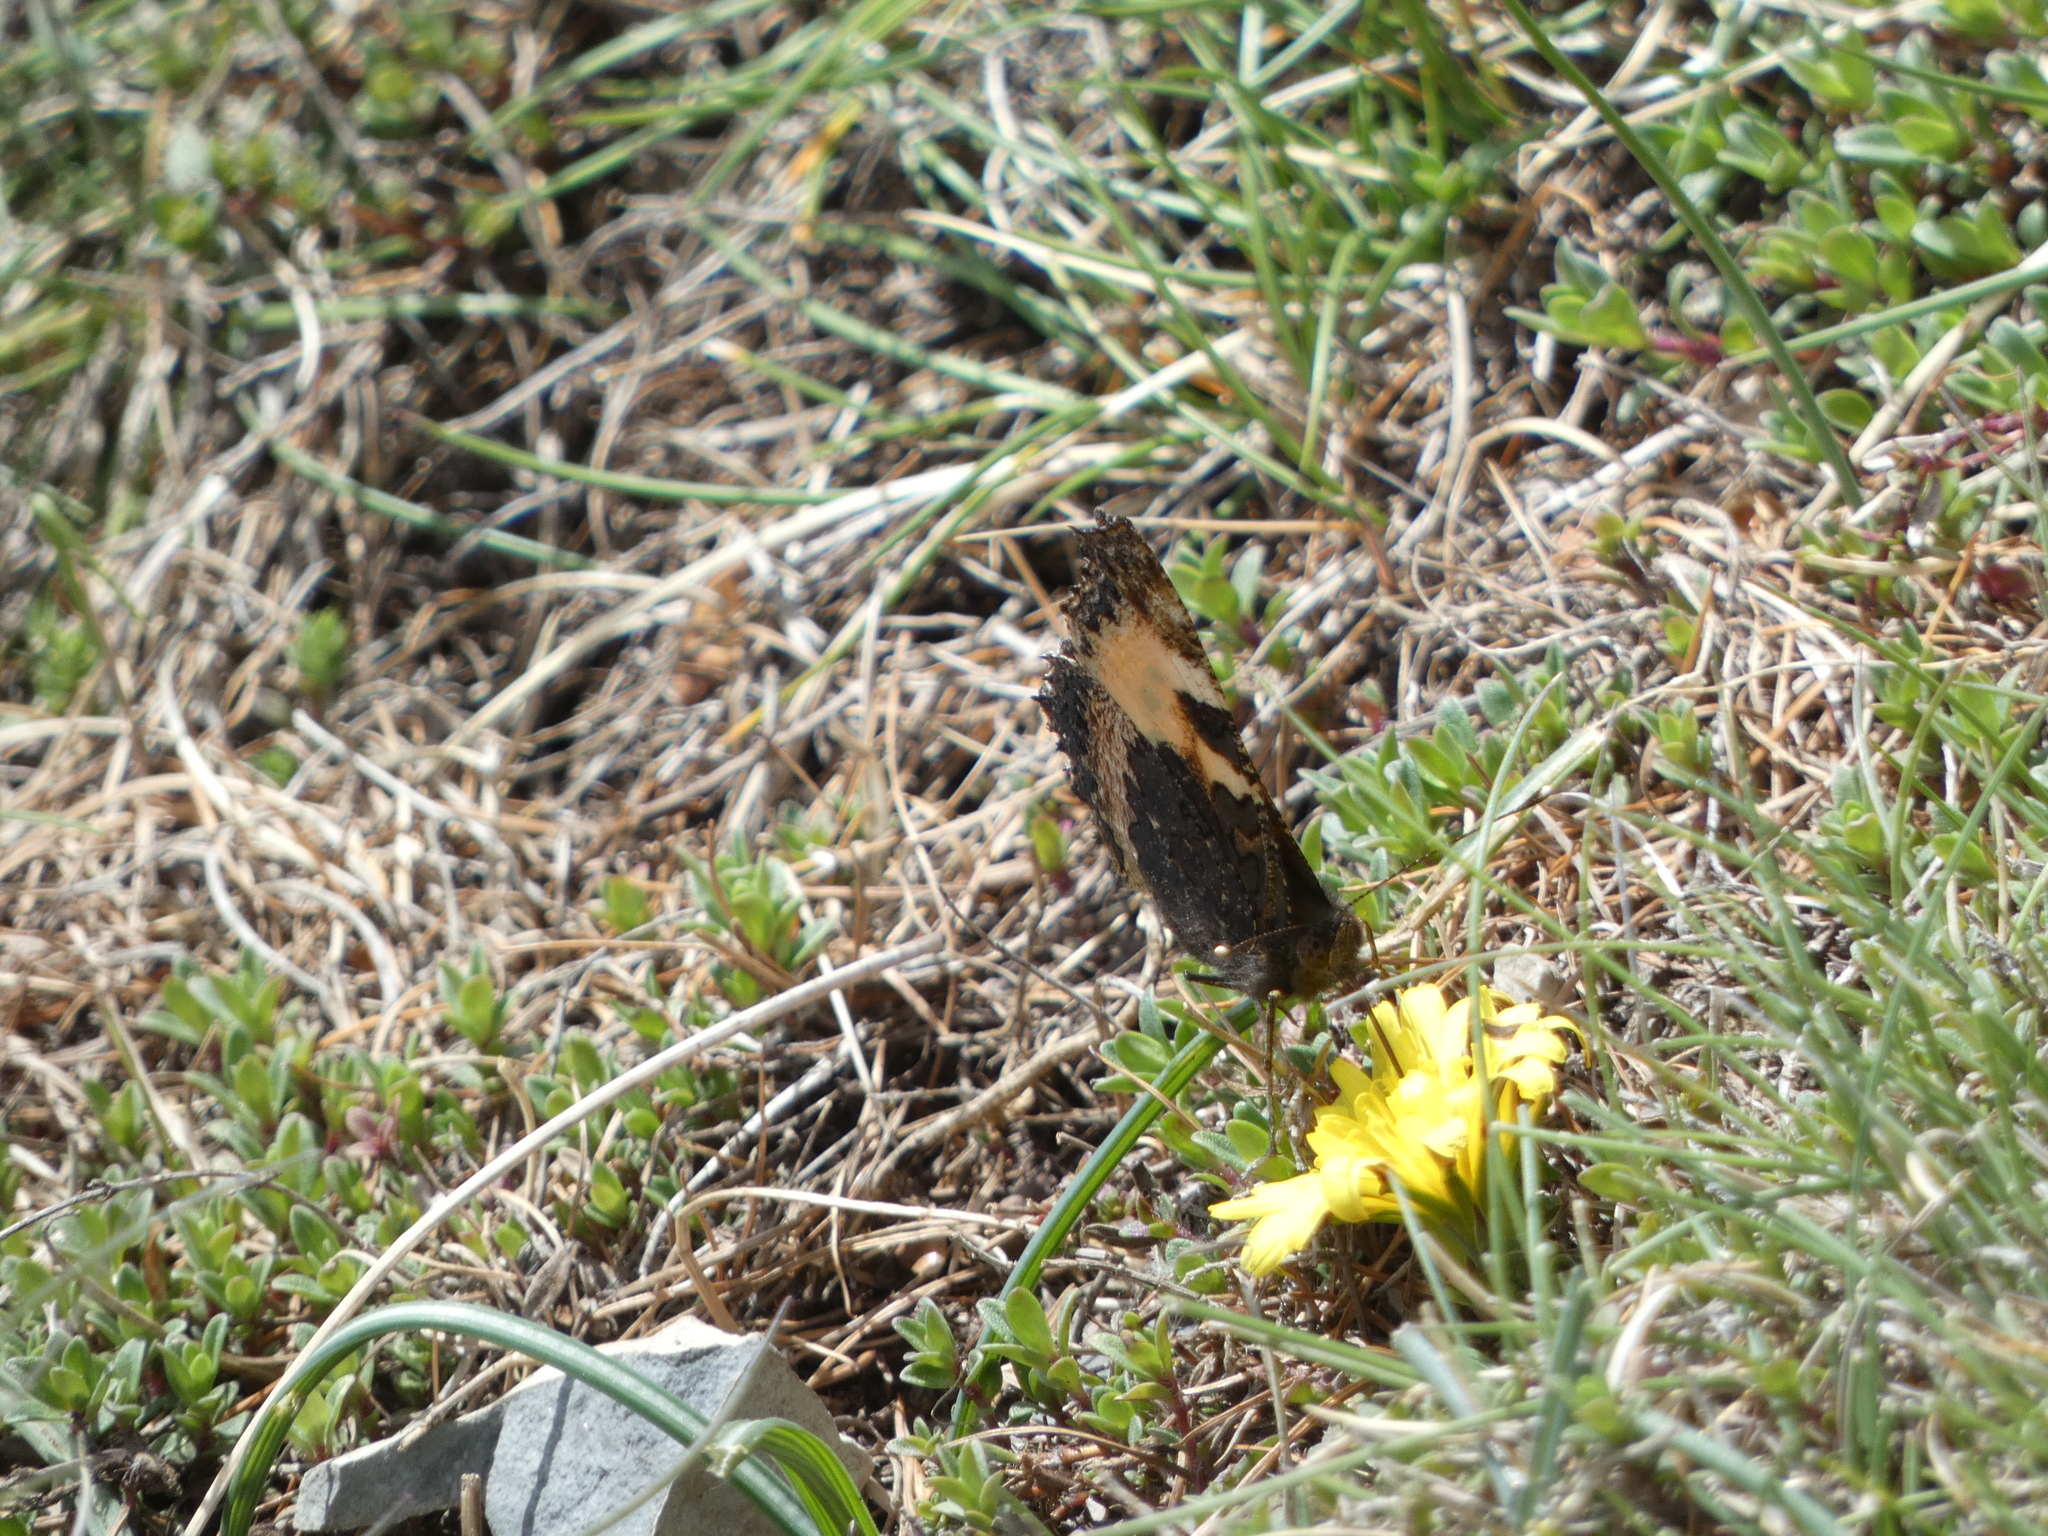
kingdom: Animalia
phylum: Arthropoda
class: Insecta
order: Lepidoptera
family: Nymphalidae
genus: Aglais
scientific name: Aglais urticae
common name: Small tortoiseshell
